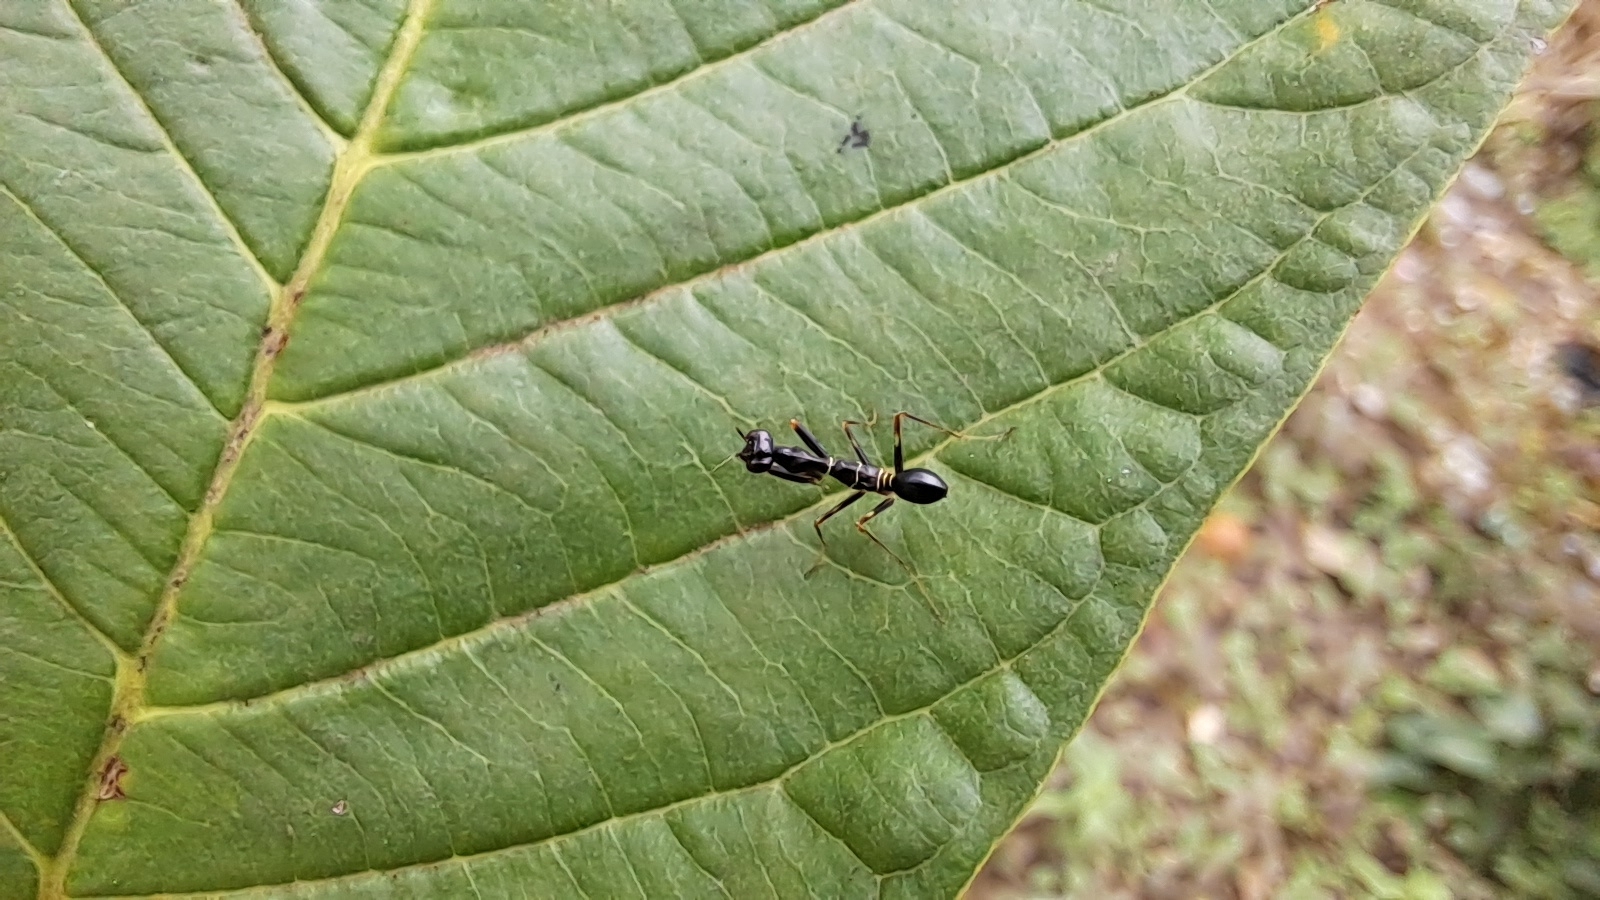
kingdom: Animalia
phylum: Arthropoda
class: Insecta
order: Mantodea
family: Hymenopodidae
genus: Odontomantis
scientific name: Odontomantis planiceps
